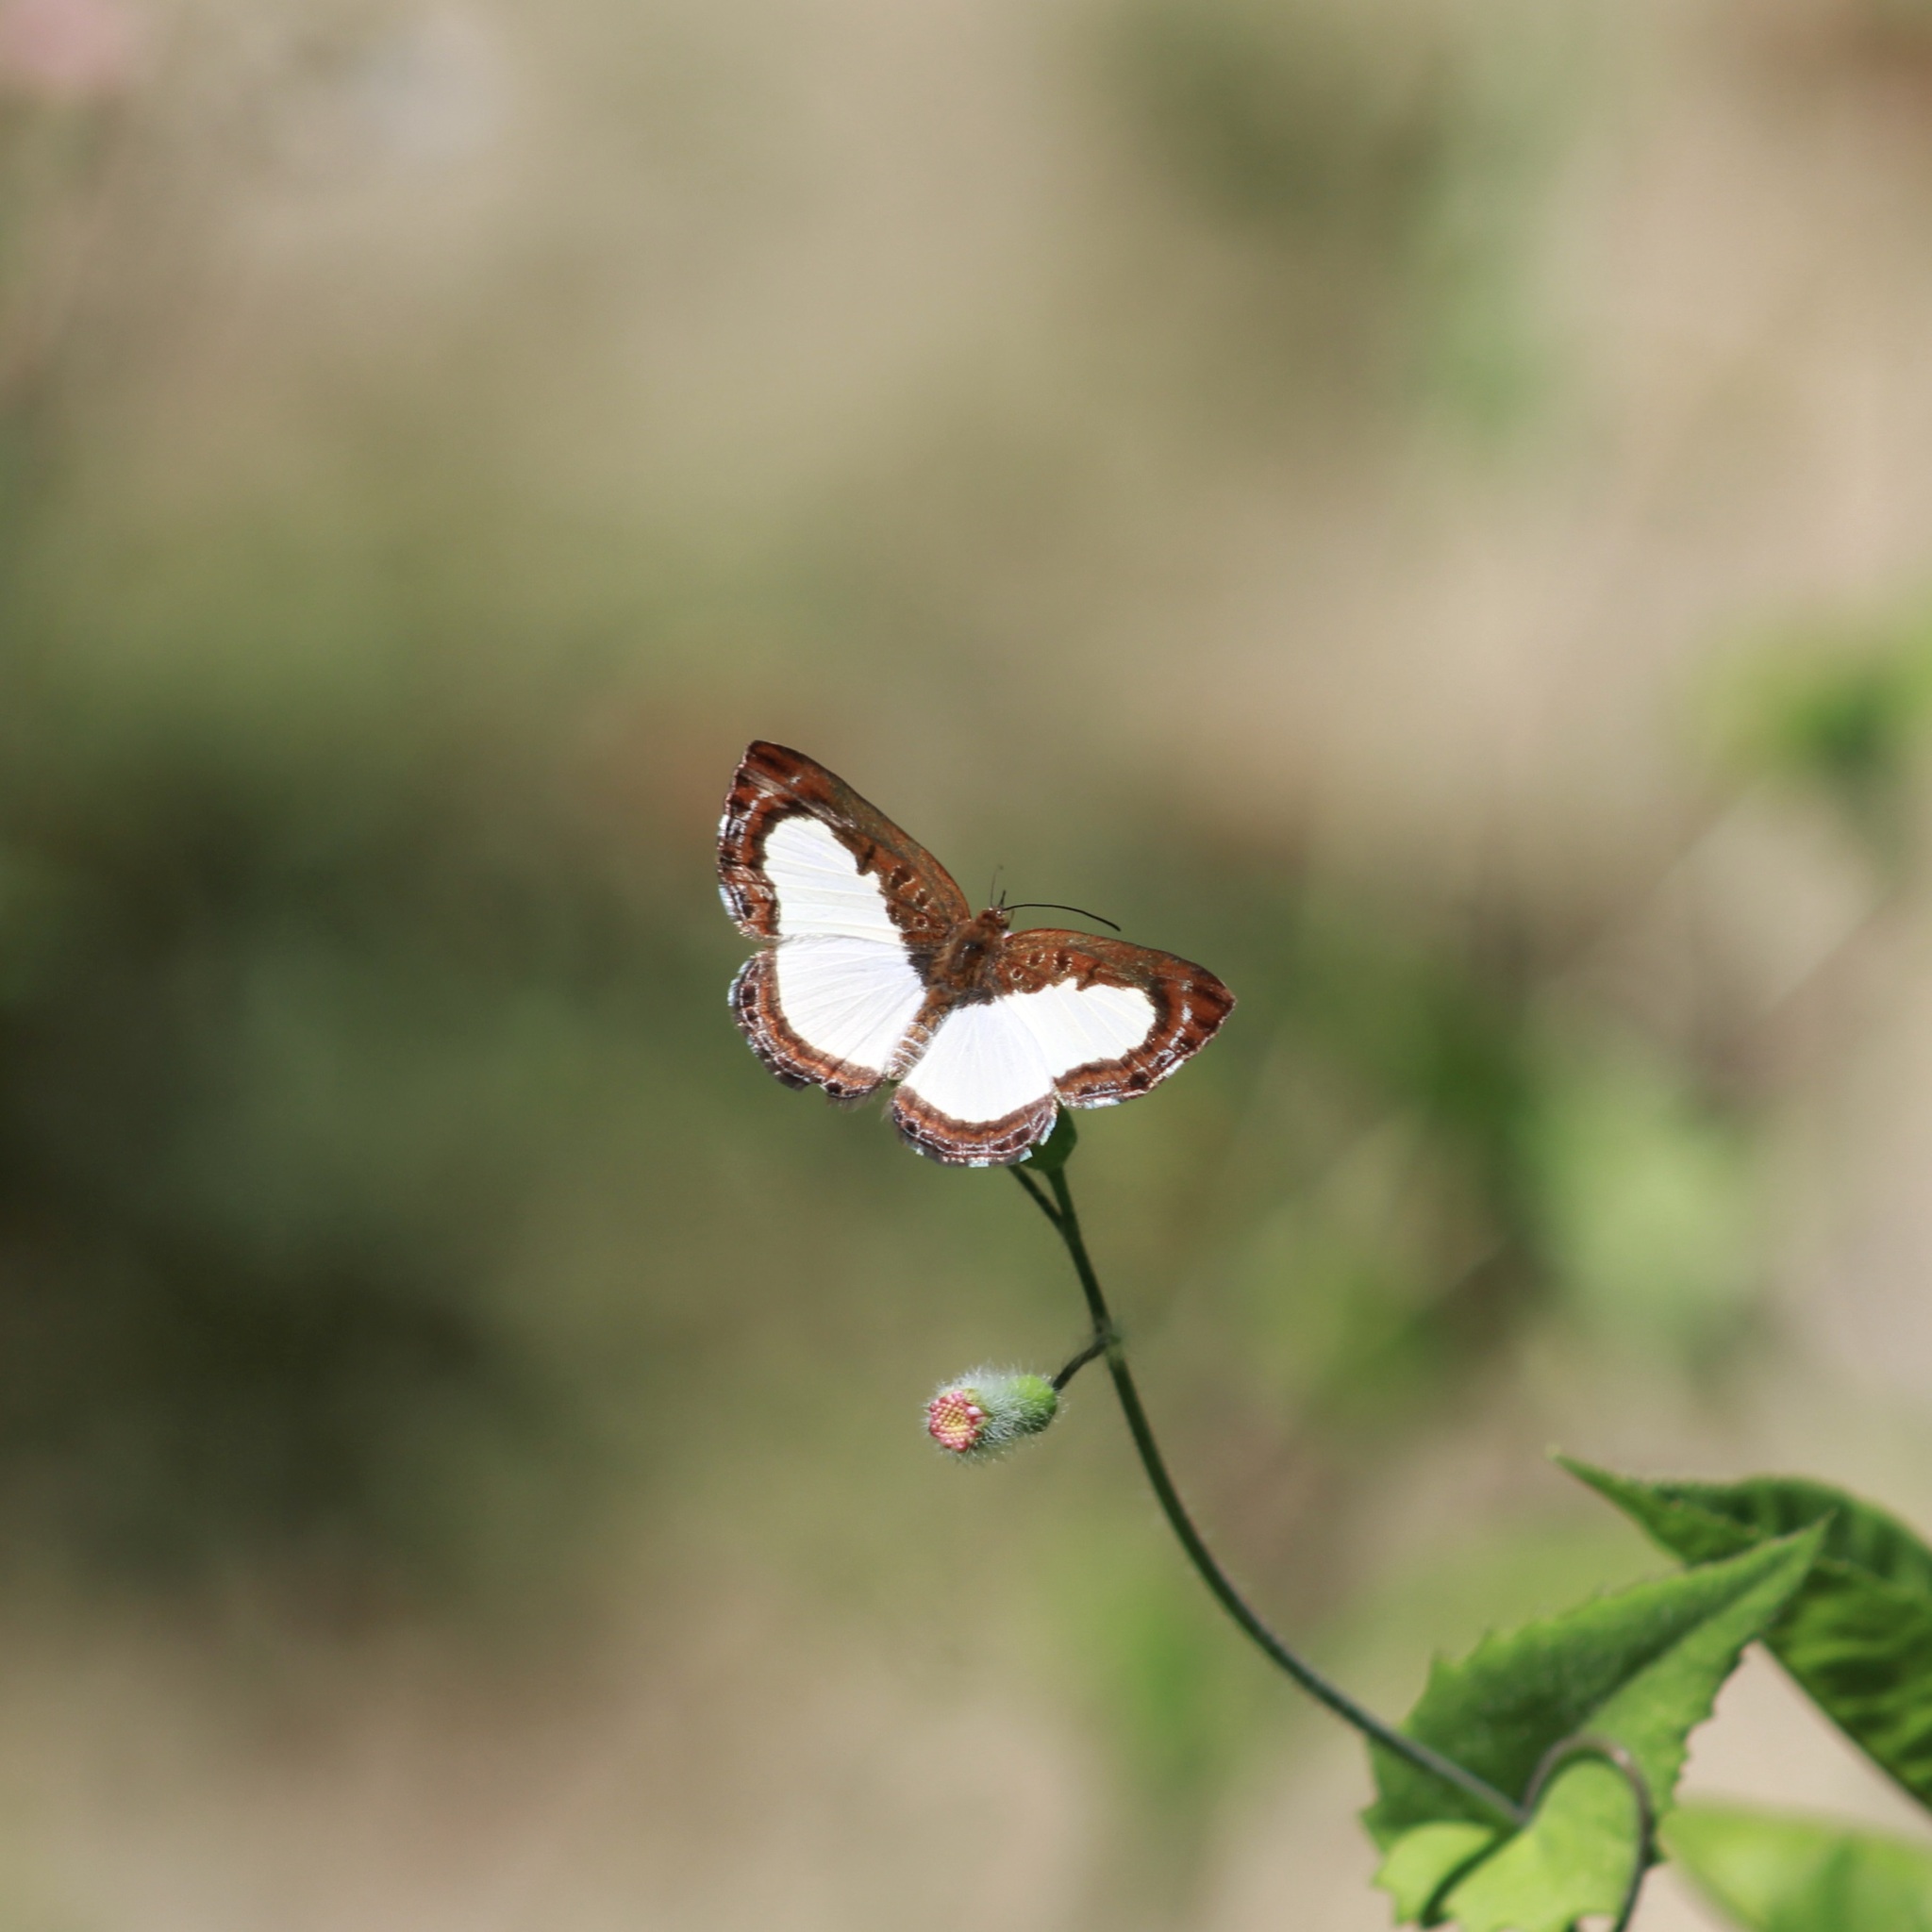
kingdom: Animalia
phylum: Arthropoda
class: Insecta
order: Lepidoptera
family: Riodinidae
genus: Nymula
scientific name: Nymula calyce
